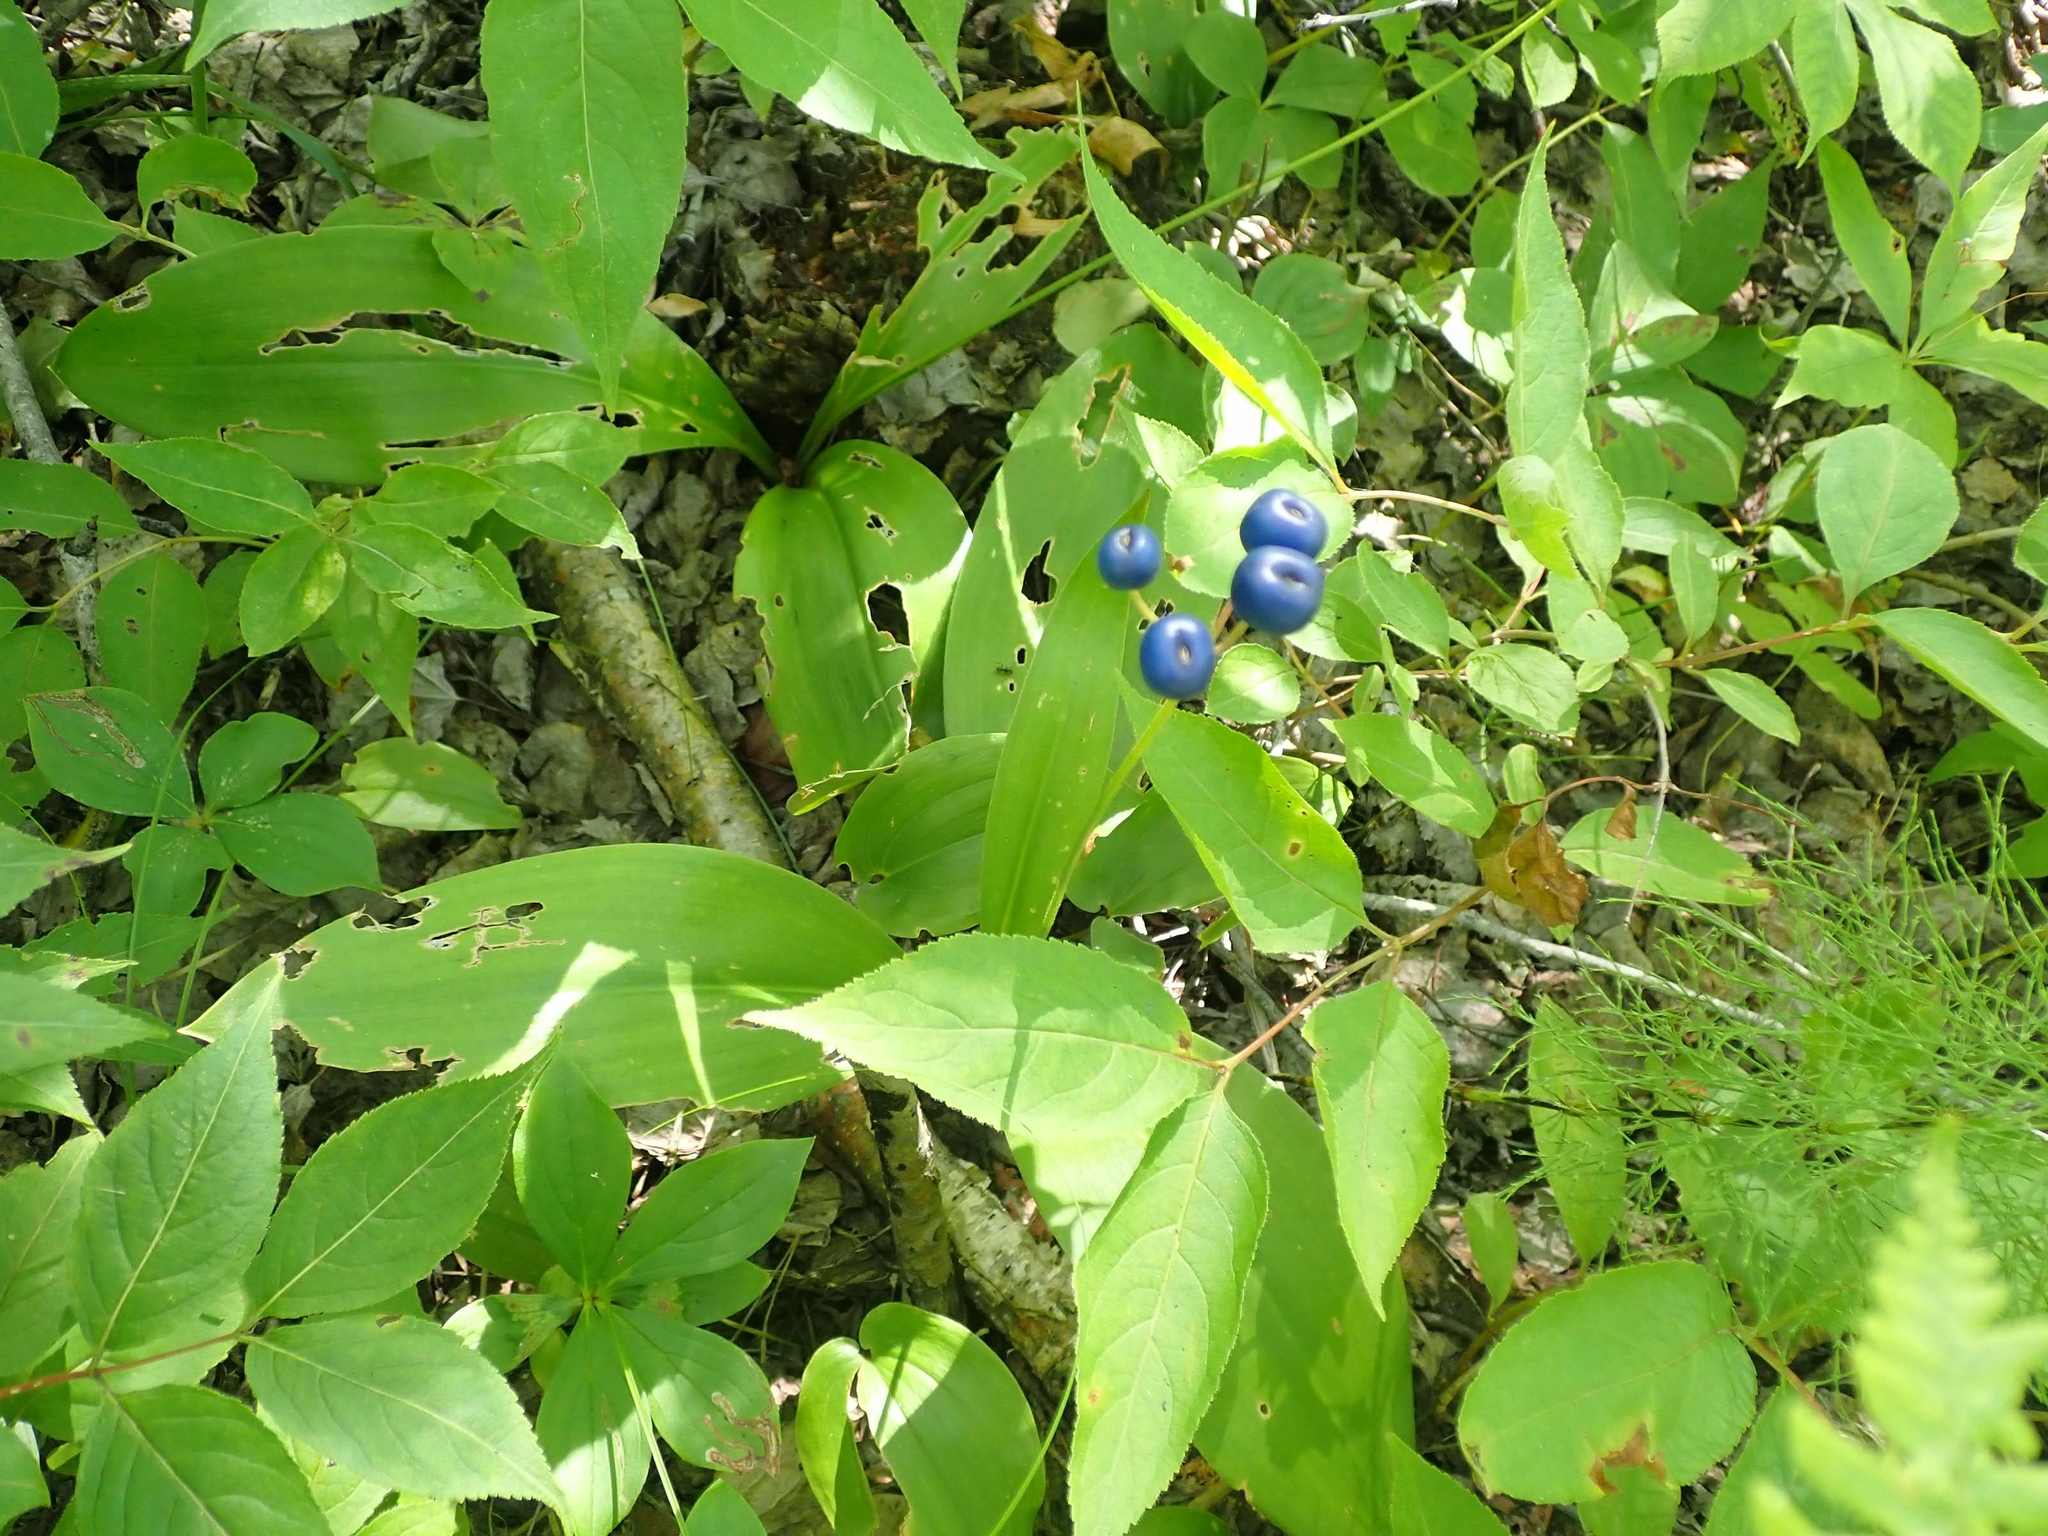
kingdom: Plantae
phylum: Tracheophyta
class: Liliopsida
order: Liliales
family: Liliaceae
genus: Clintonia
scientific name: Clintonia borealis
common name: Yellow clintonia
